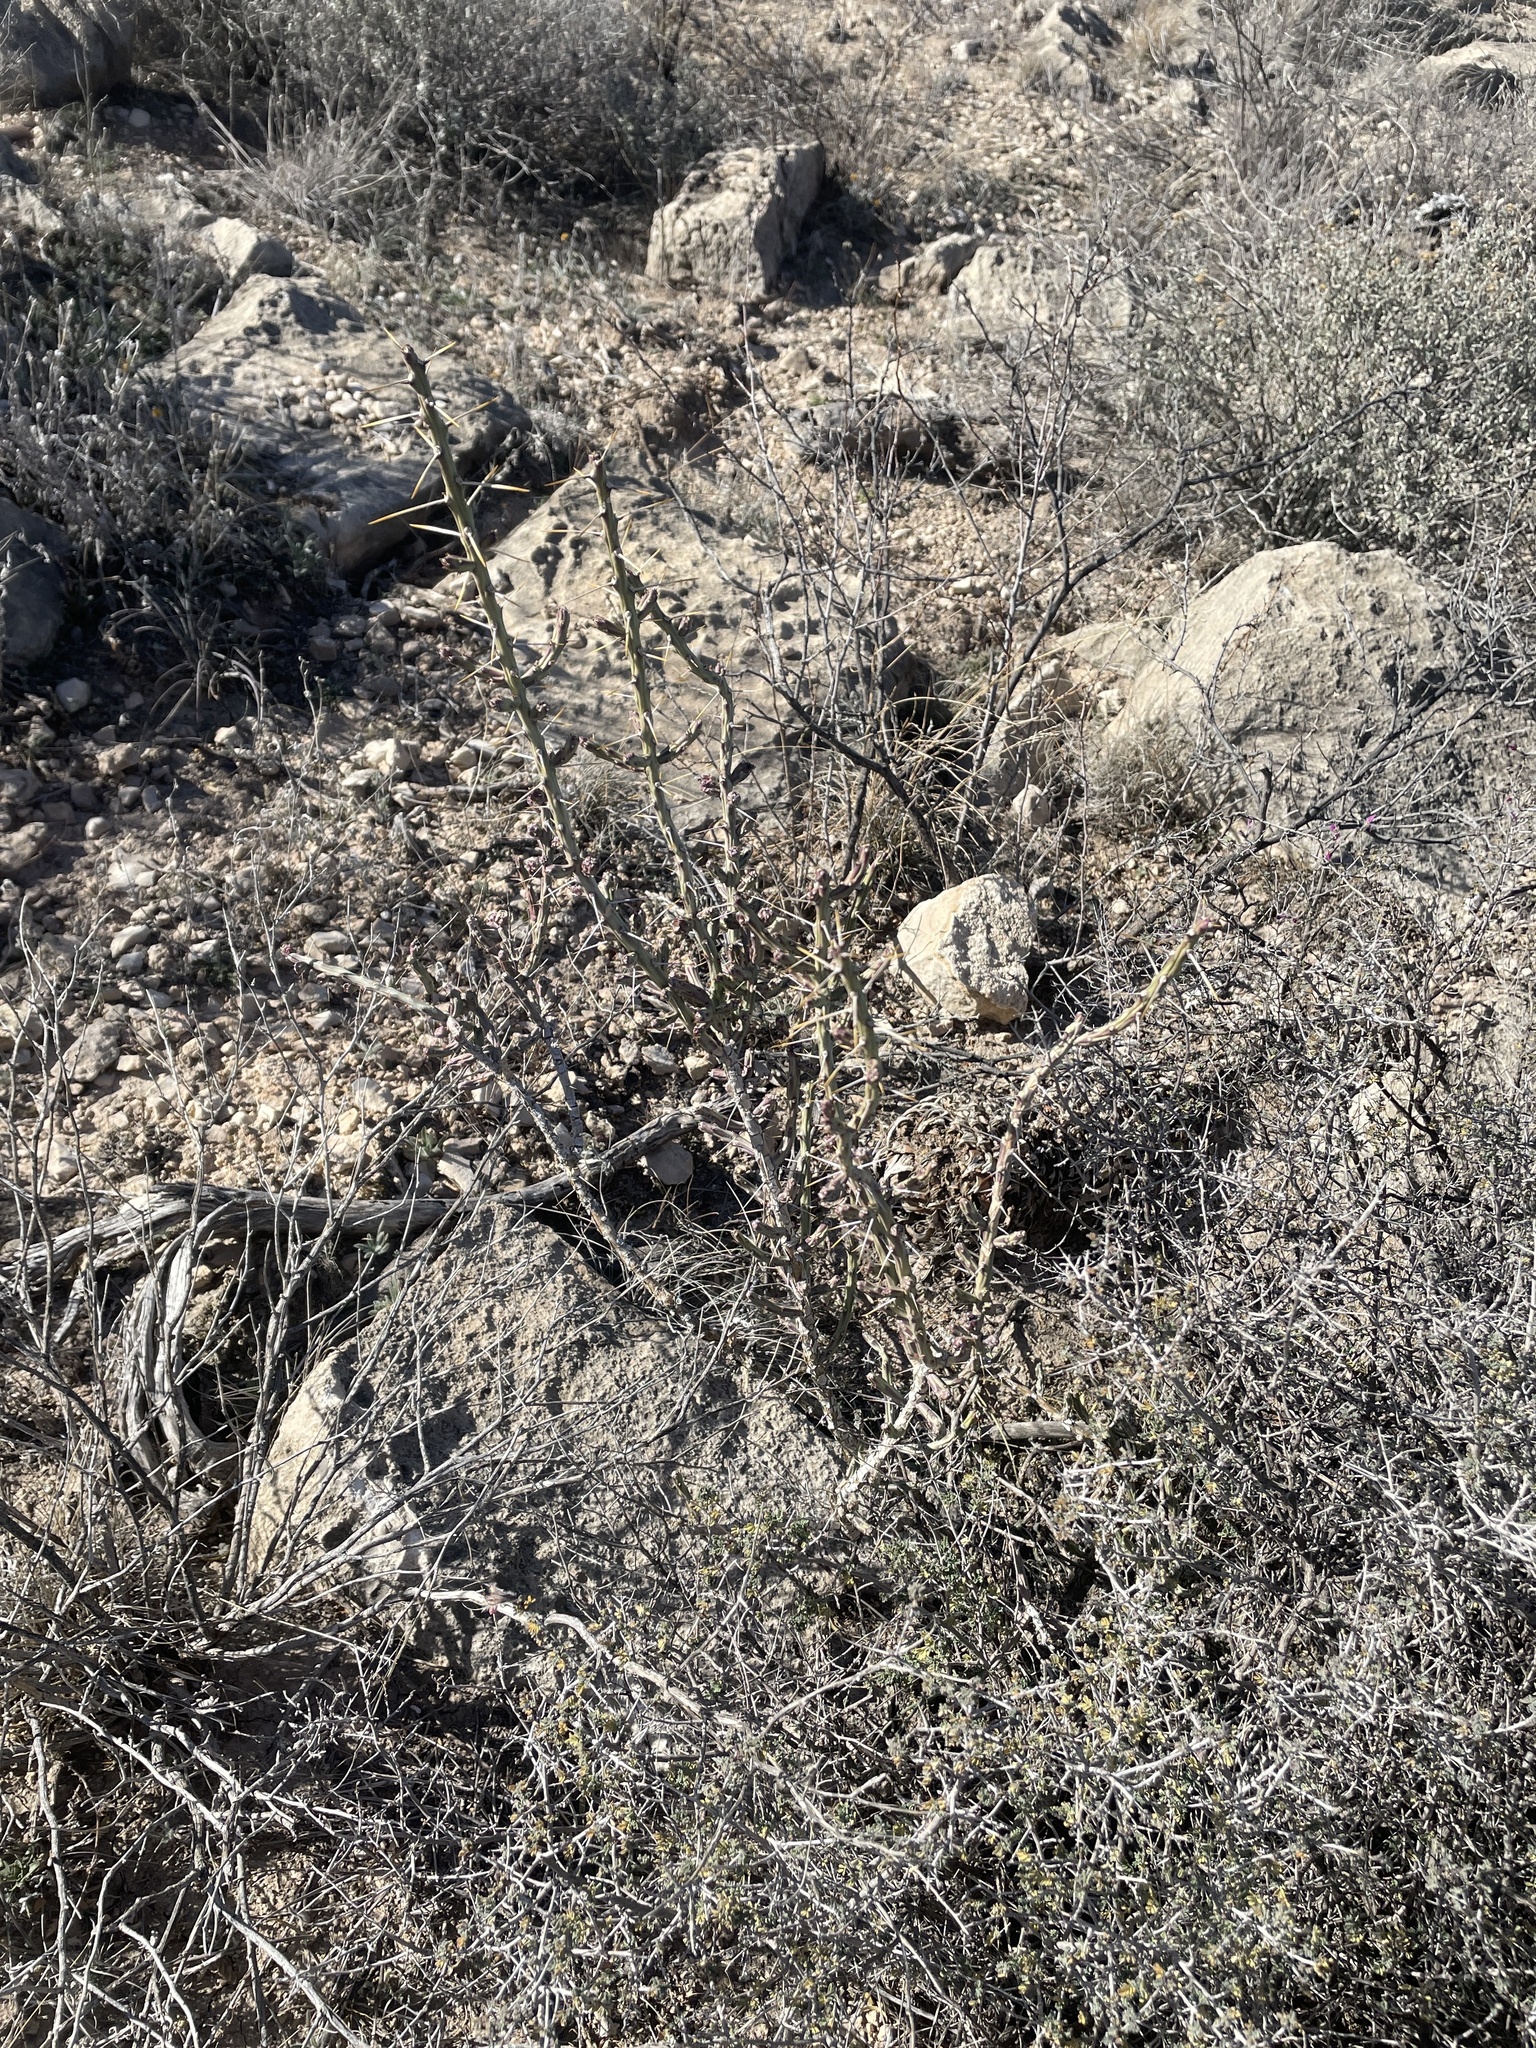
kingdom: Plantae
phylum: Tracheophyta
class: Magnoliopsida
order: Caryophyllales
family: Cactaceae
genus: Cylindropuntia
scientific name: Cylindropuntia leptocaulis
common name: Christmas cactus
